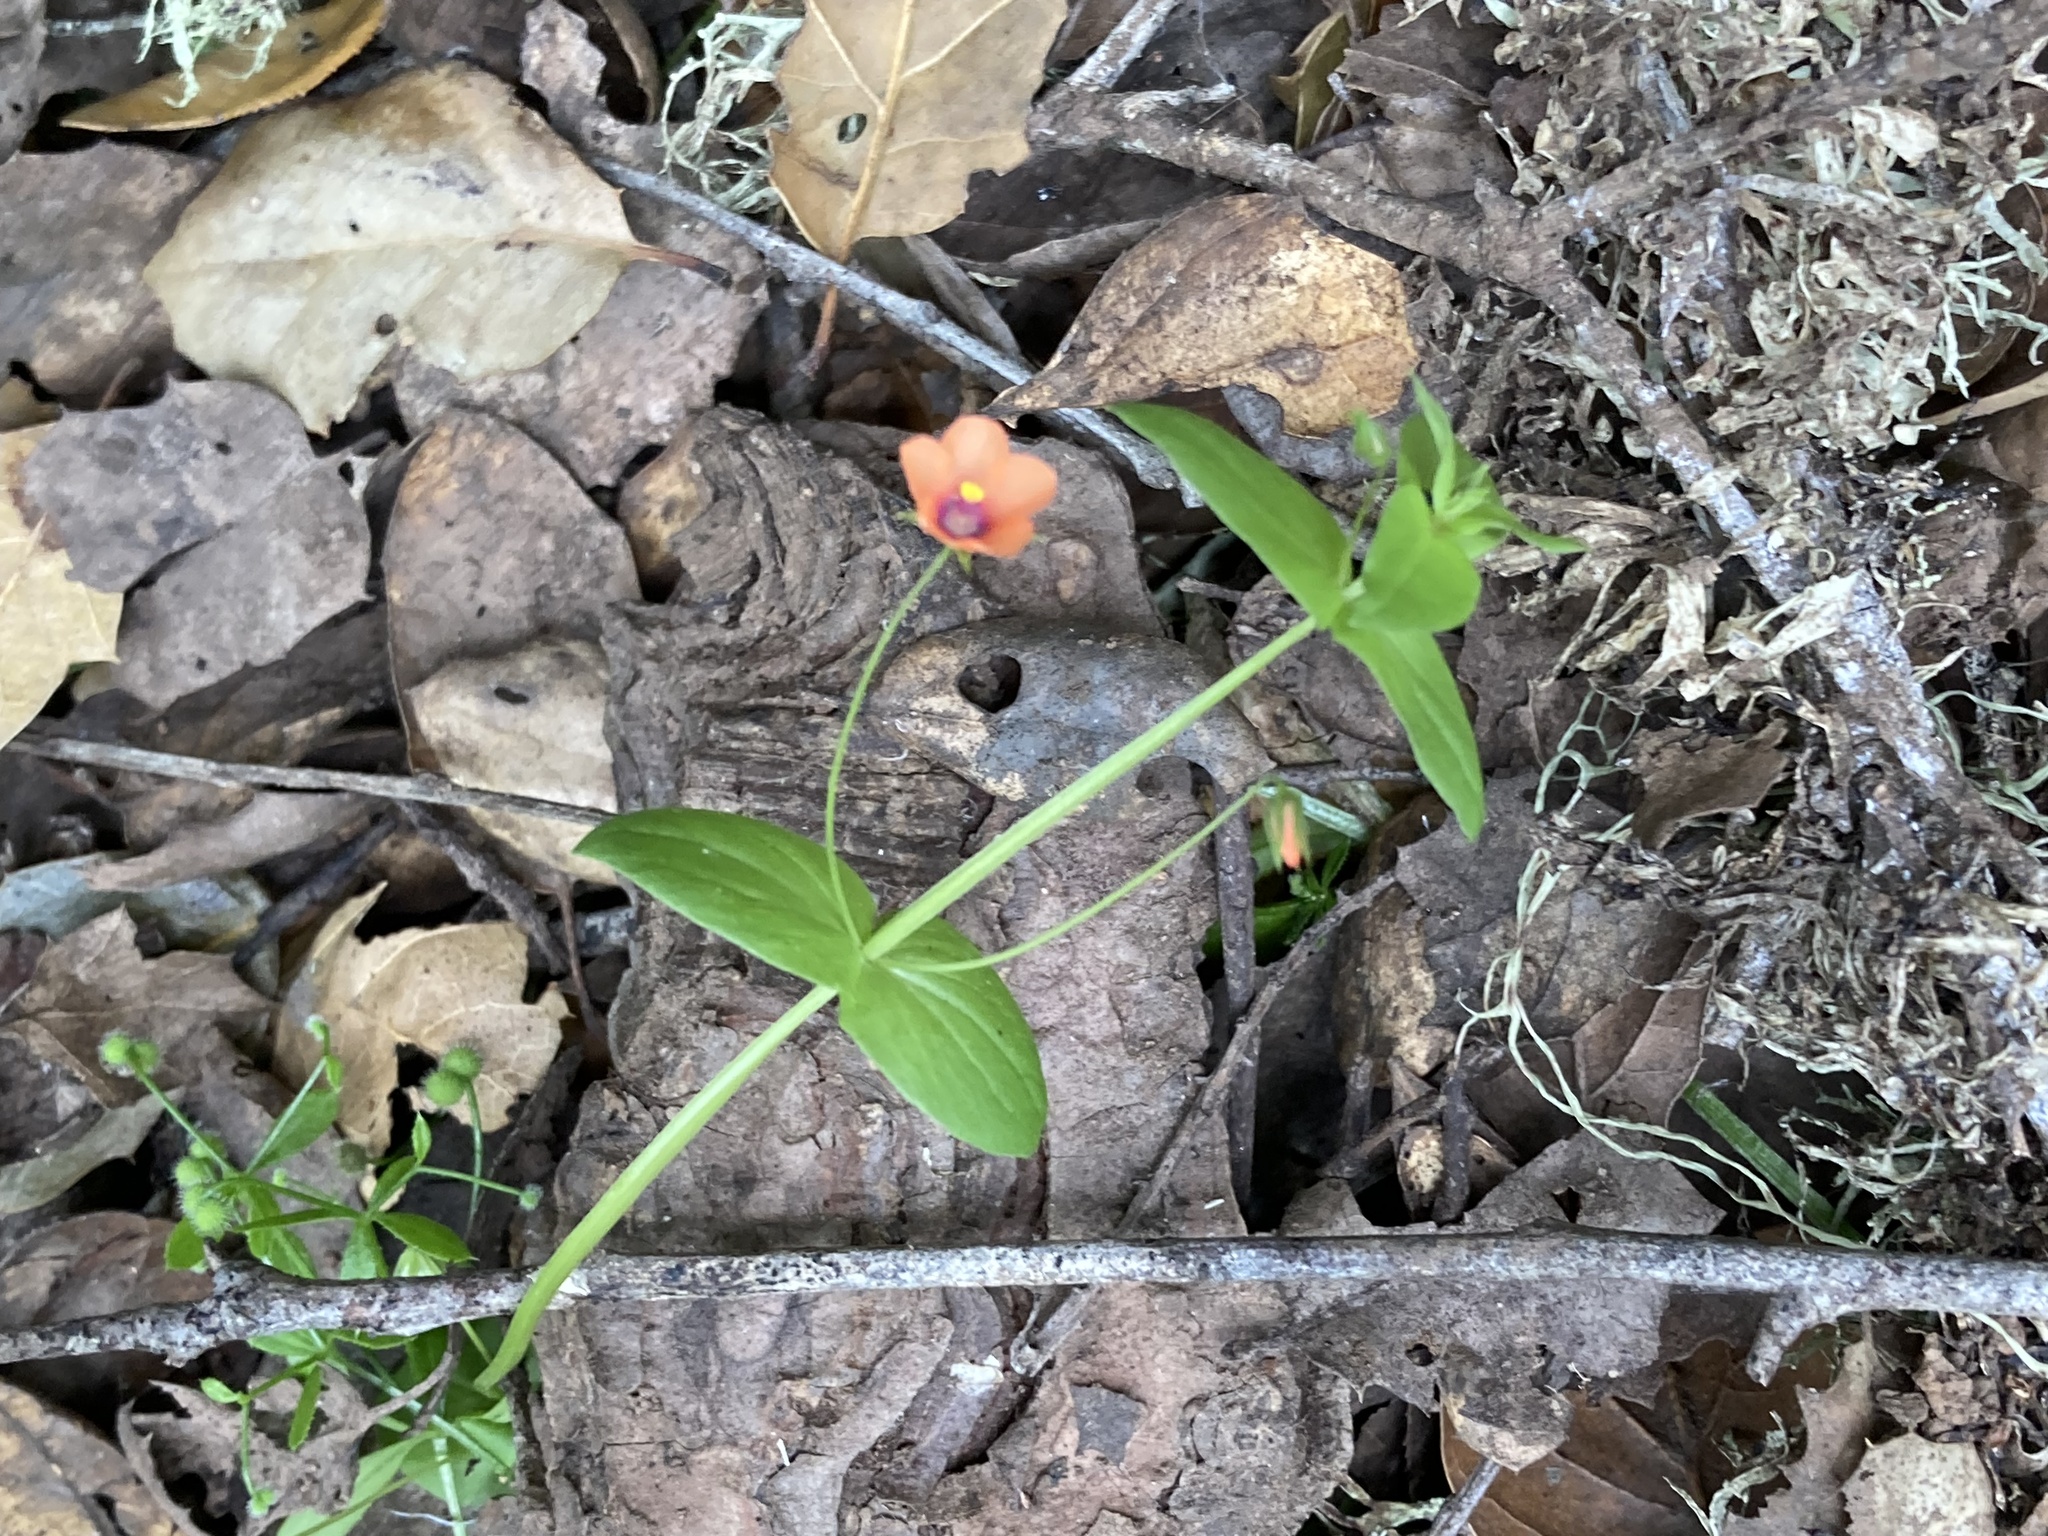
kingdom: Plantae
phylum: Tracheophyta
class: Magnoliopsida
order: Ericales
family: Primulaceae
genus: Lysimachia
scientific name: Lysimachia arvensis
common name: Scarlet pimpernel
